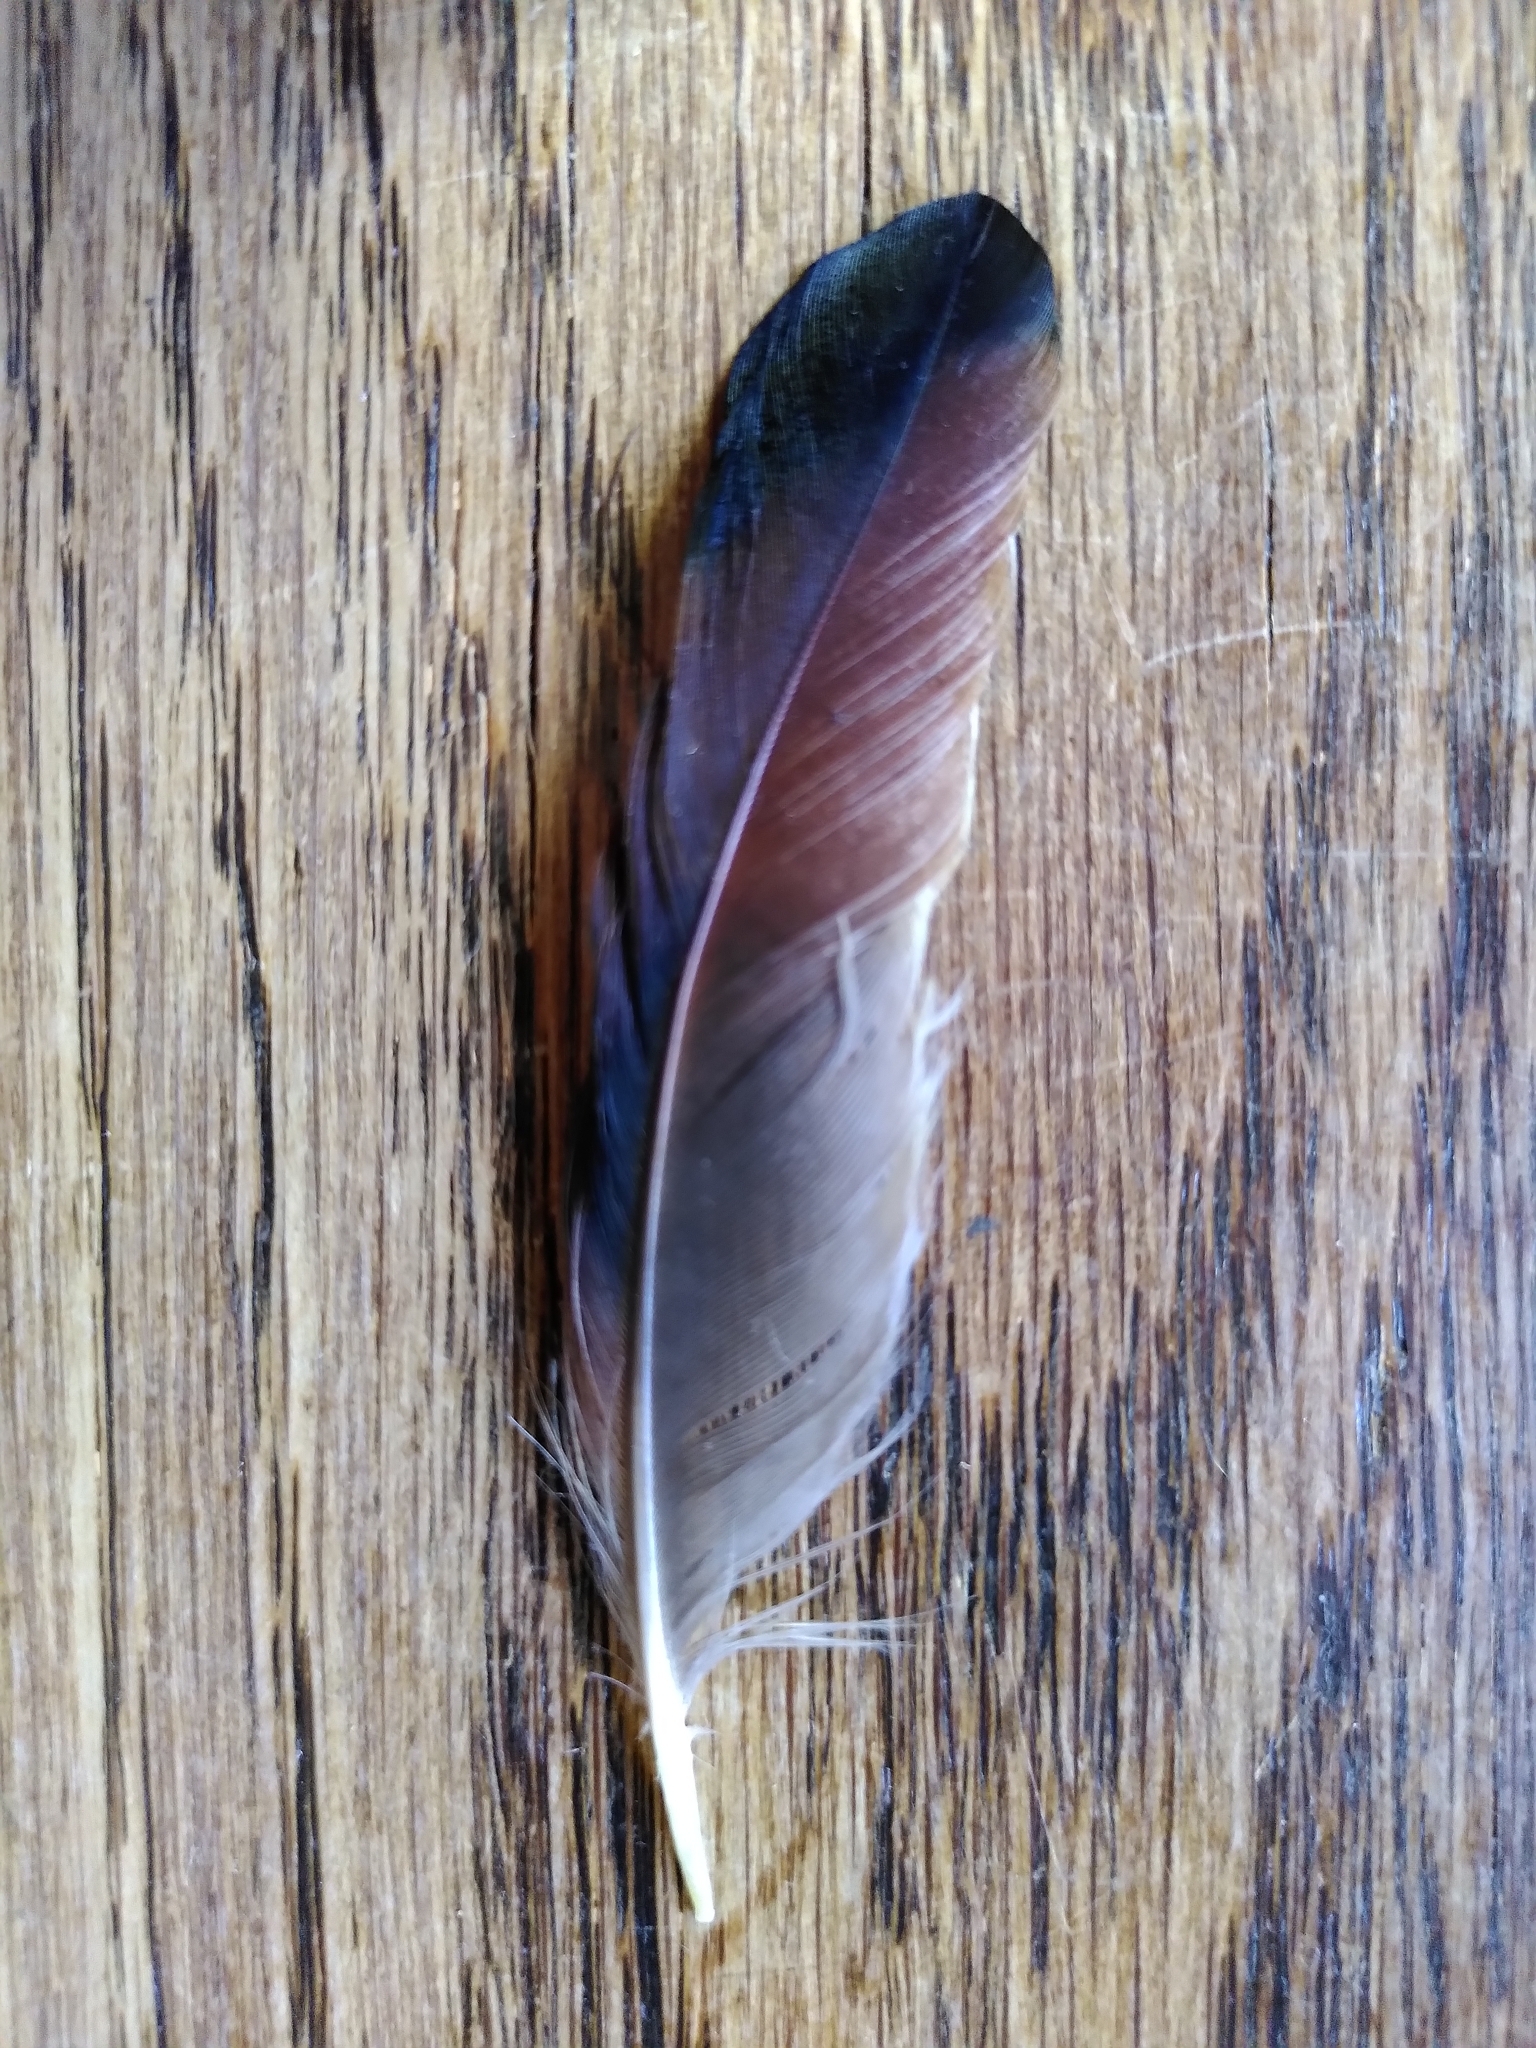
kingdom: Animalia
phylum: Chordata
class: Aves
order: Passeriformes
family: Corvidae
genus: Garrulus
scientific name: Garrulus glandarius
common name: Eurasian jay
